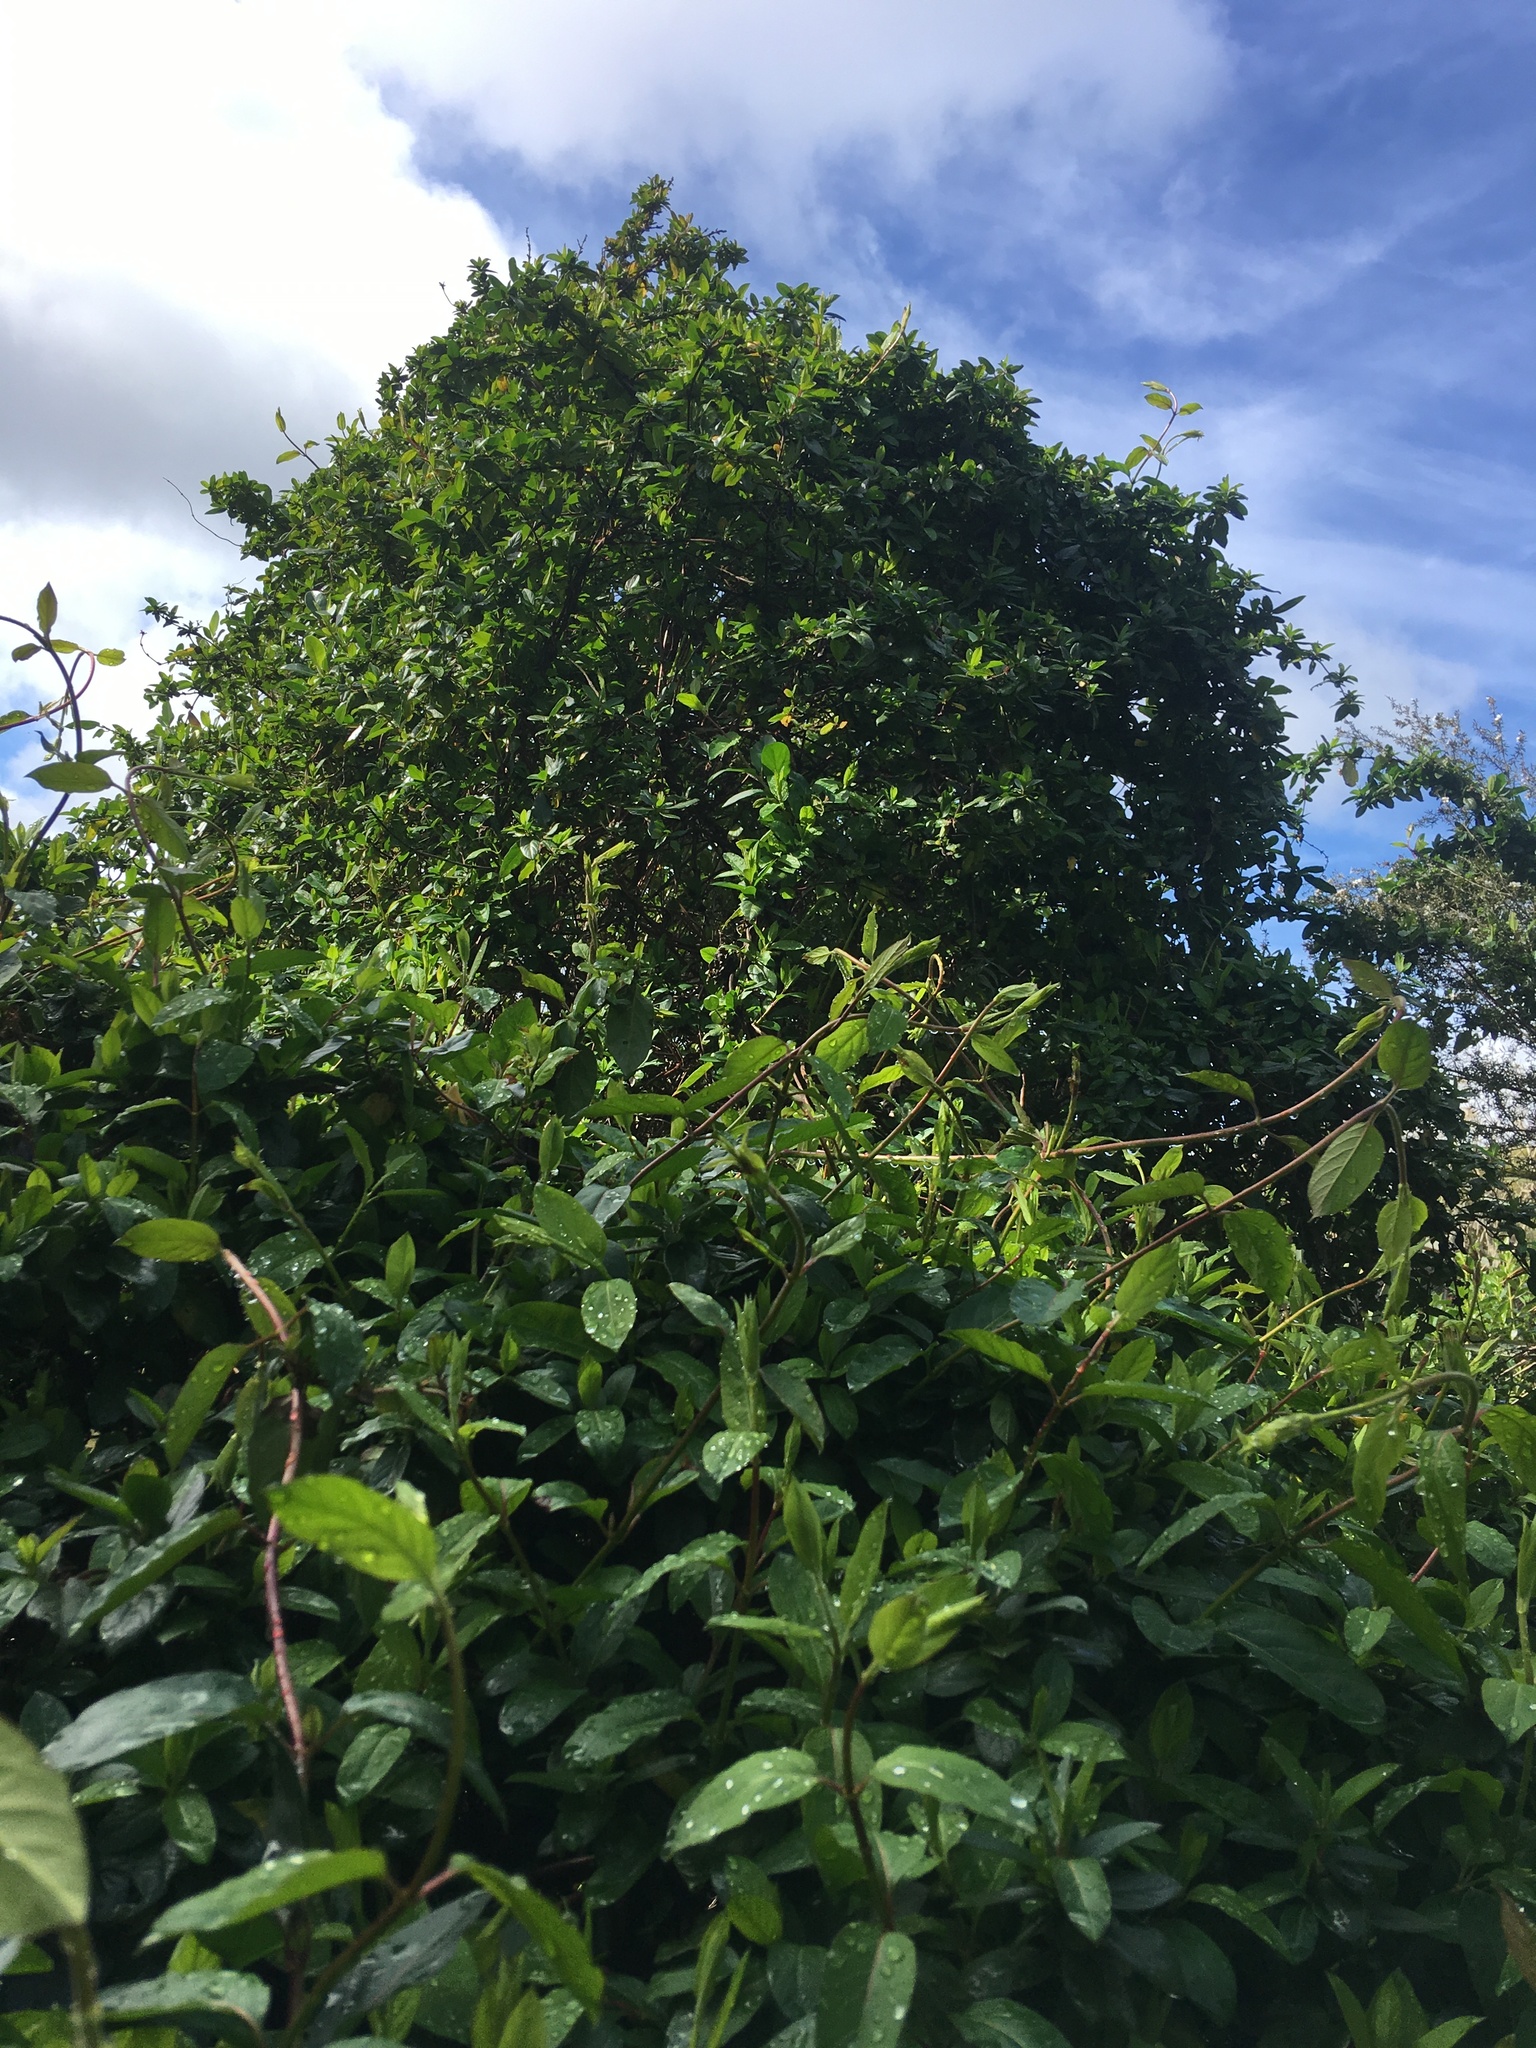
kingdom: Plantae
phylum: Tracheophyta
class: Magnoliopsida
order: Dipsacales
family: Caprifoliaceae
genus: Lonicera
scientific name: Lonicera japonica
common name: Japanese honeysuckle
